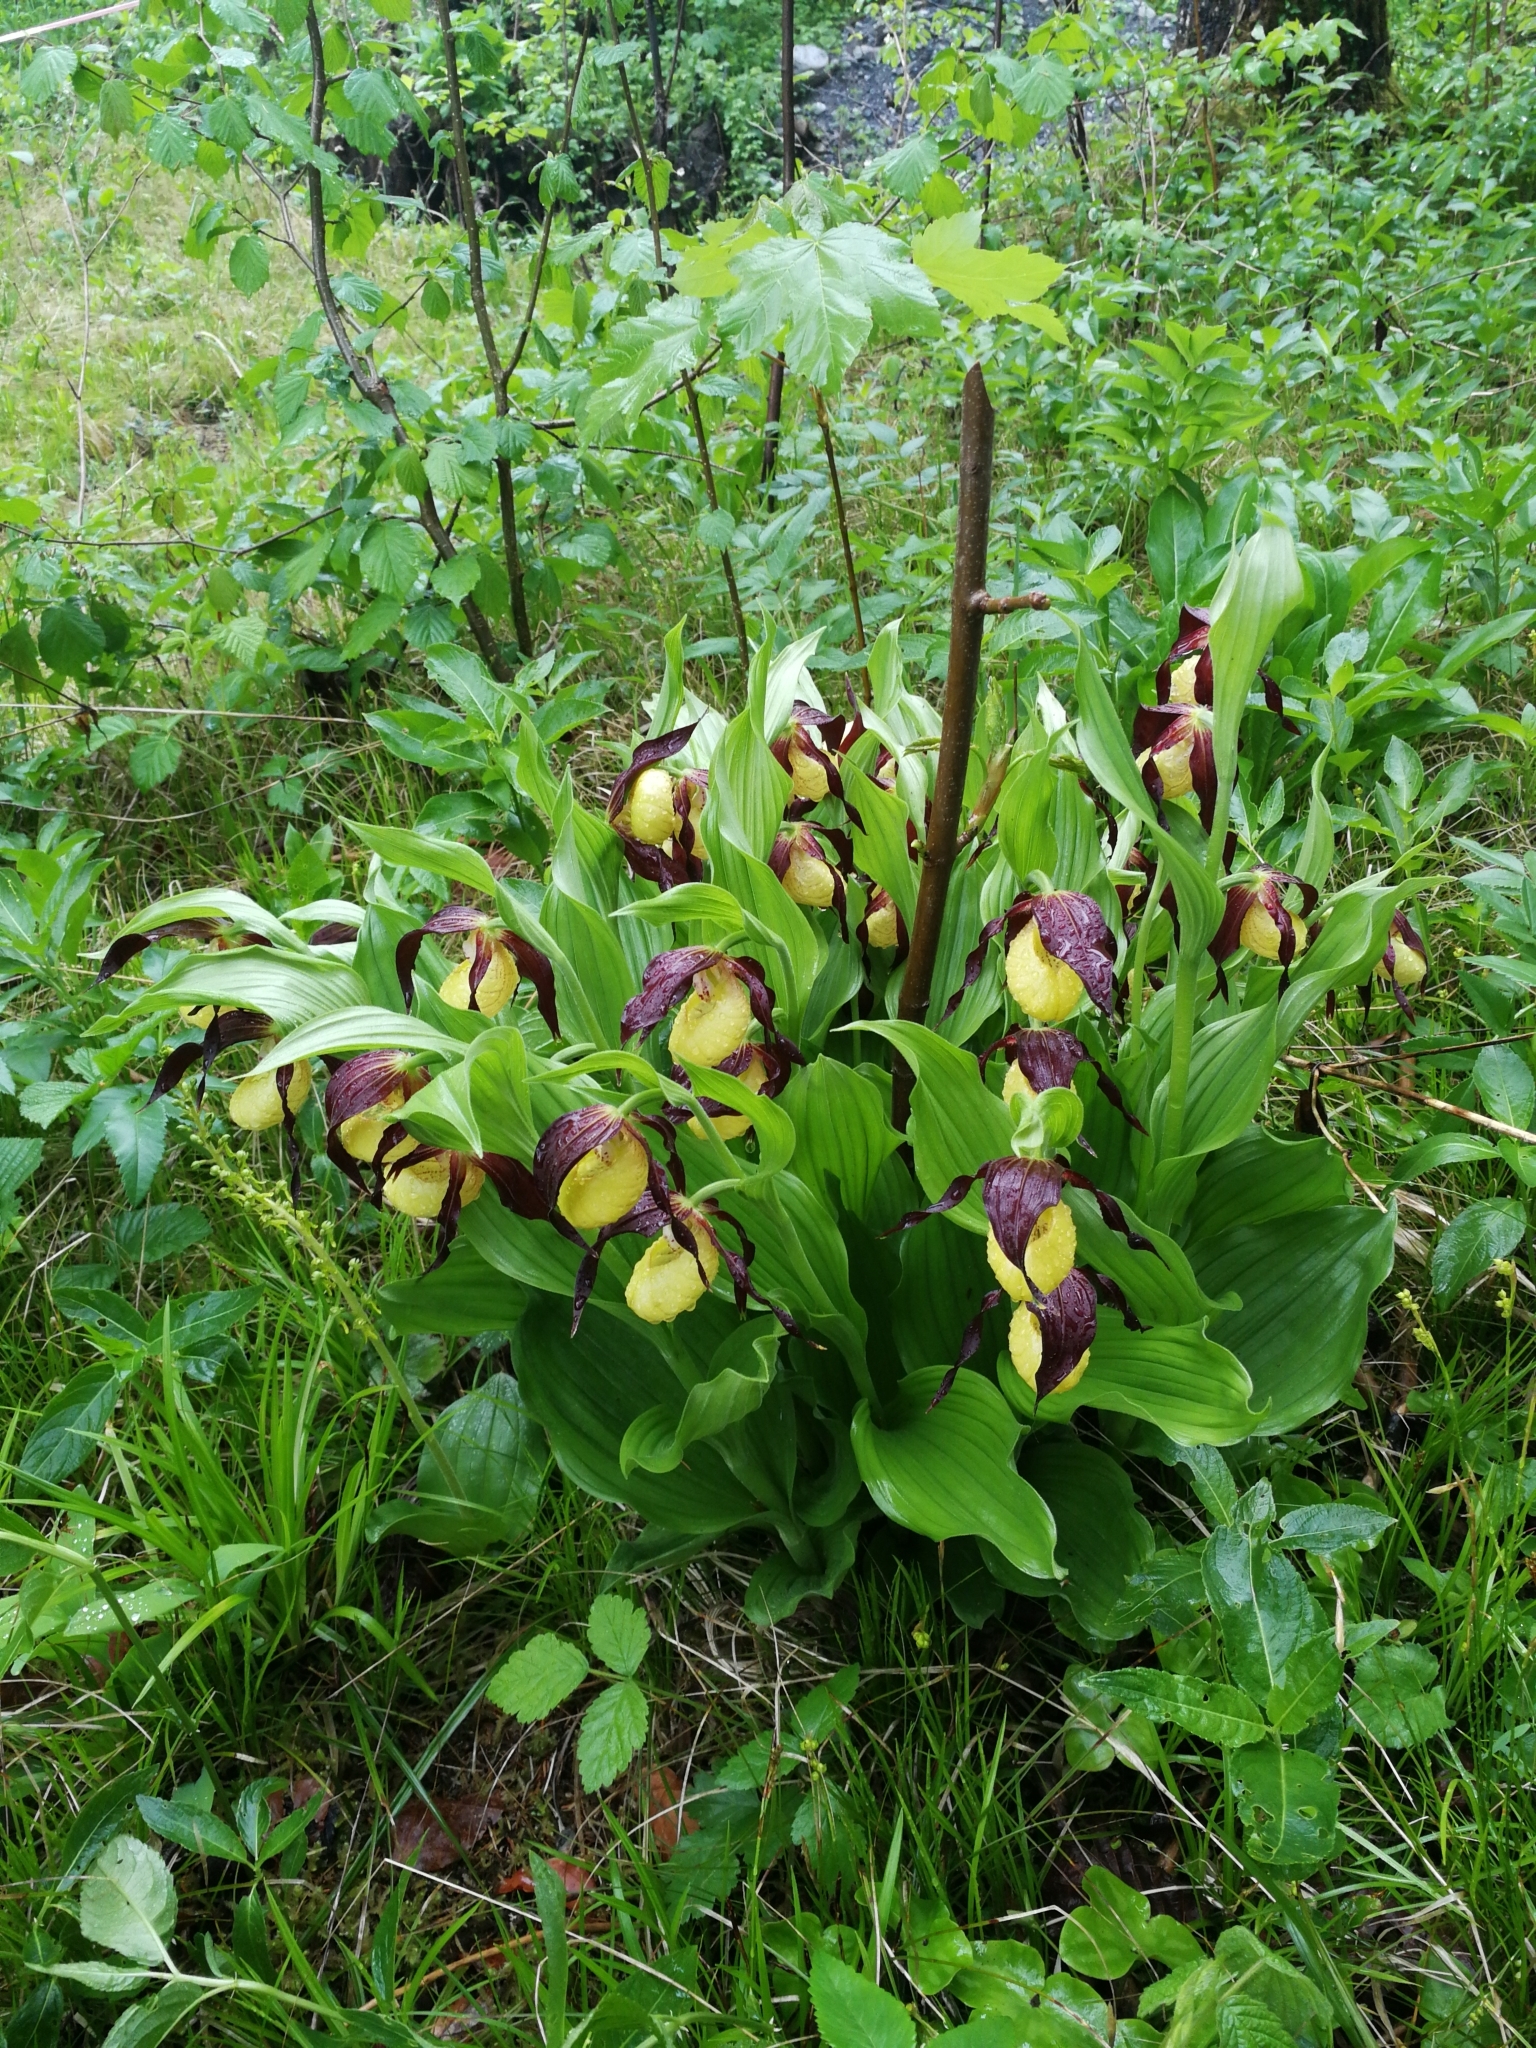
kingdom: Plantae
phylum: Tracheophyta
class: Liliopsida
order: Asparagales
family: Orchidaceae
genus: Cypripedium
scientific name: Cypripedium calceolus
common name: Lady's-slipper
